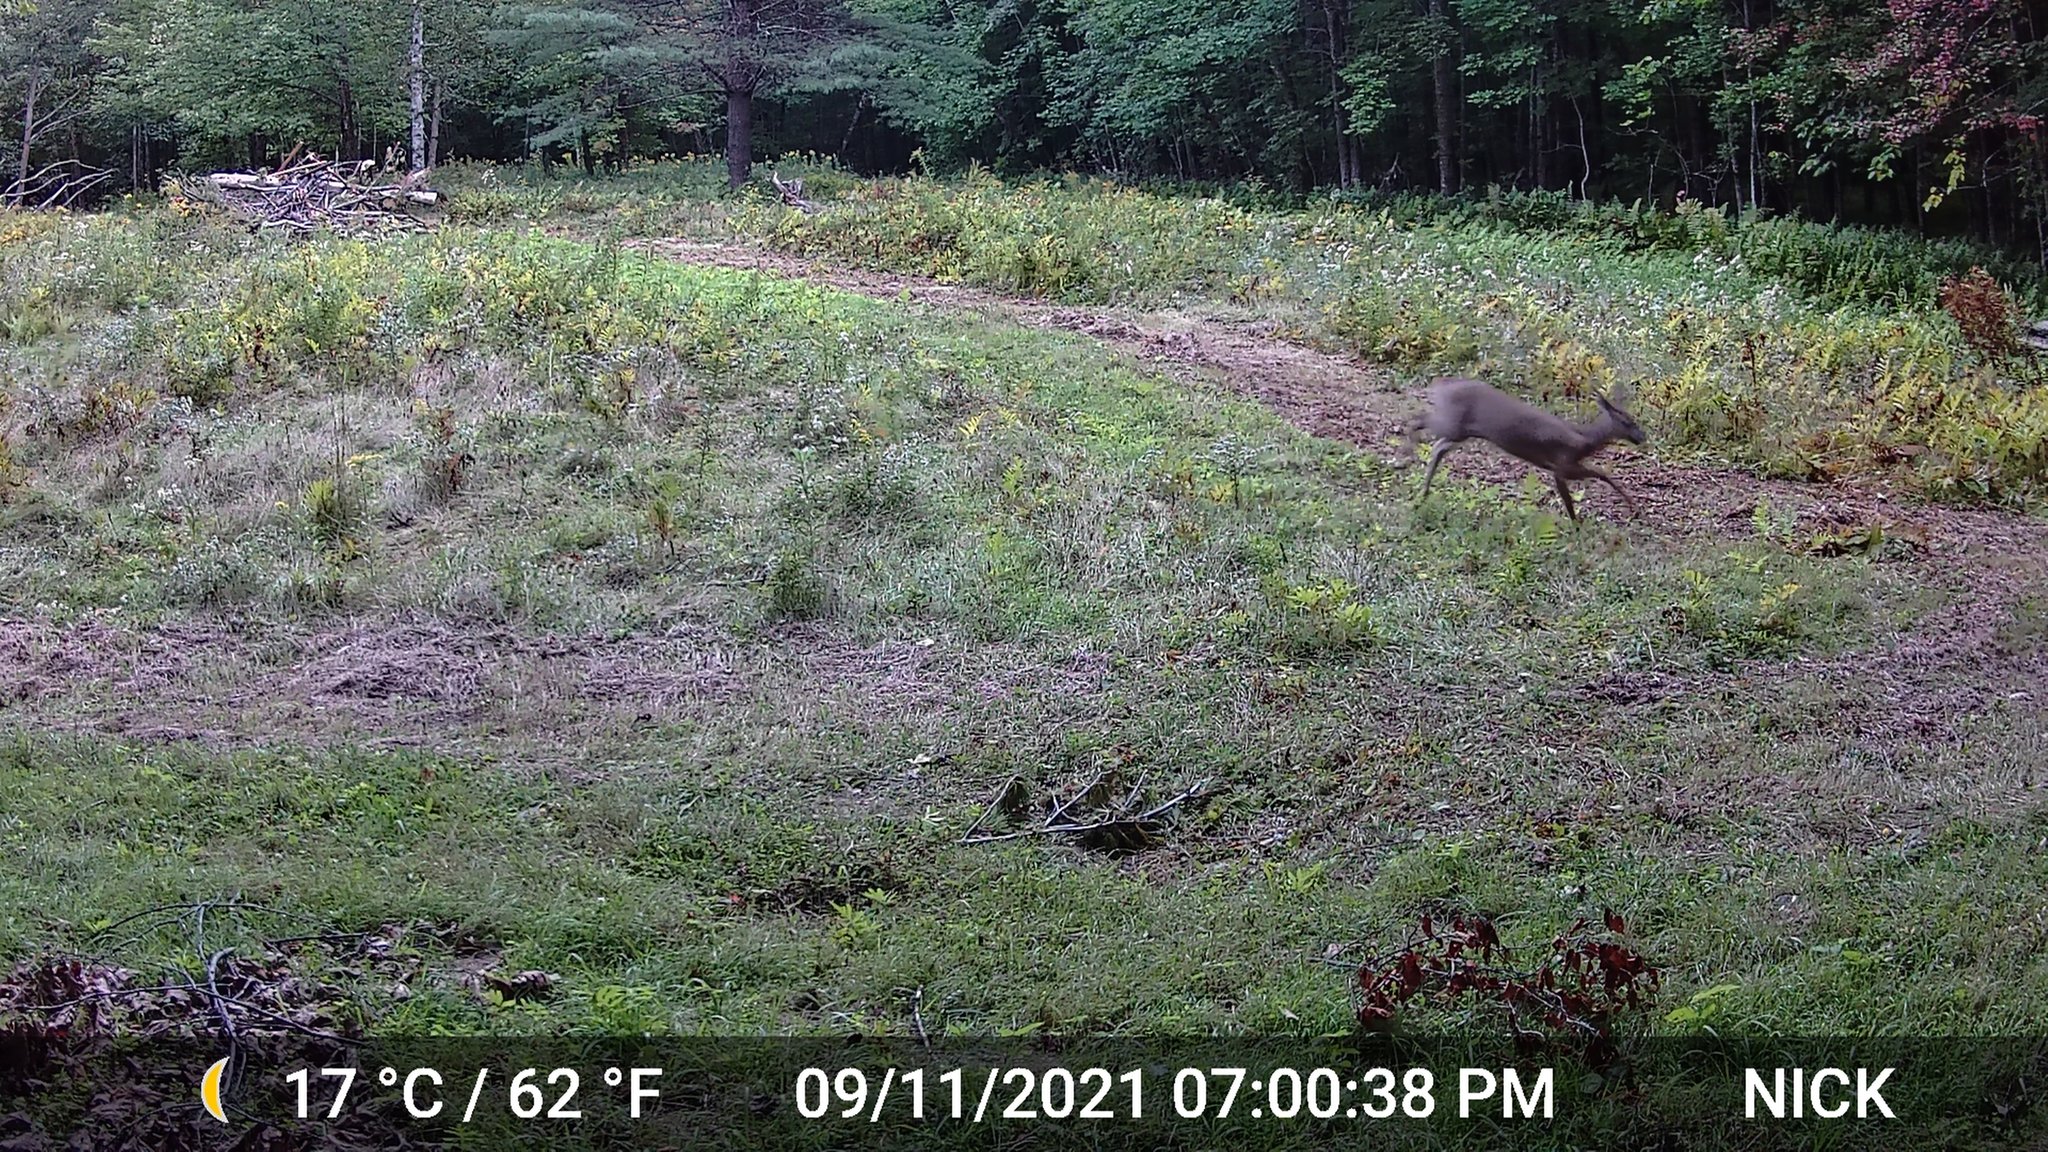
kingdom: Animalia
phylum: Chordata
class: Mammalia
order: Artiodactyla
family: Cervidae
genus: Odocoileus
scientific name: Odocoileus virginianus
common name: White-tailed deer
